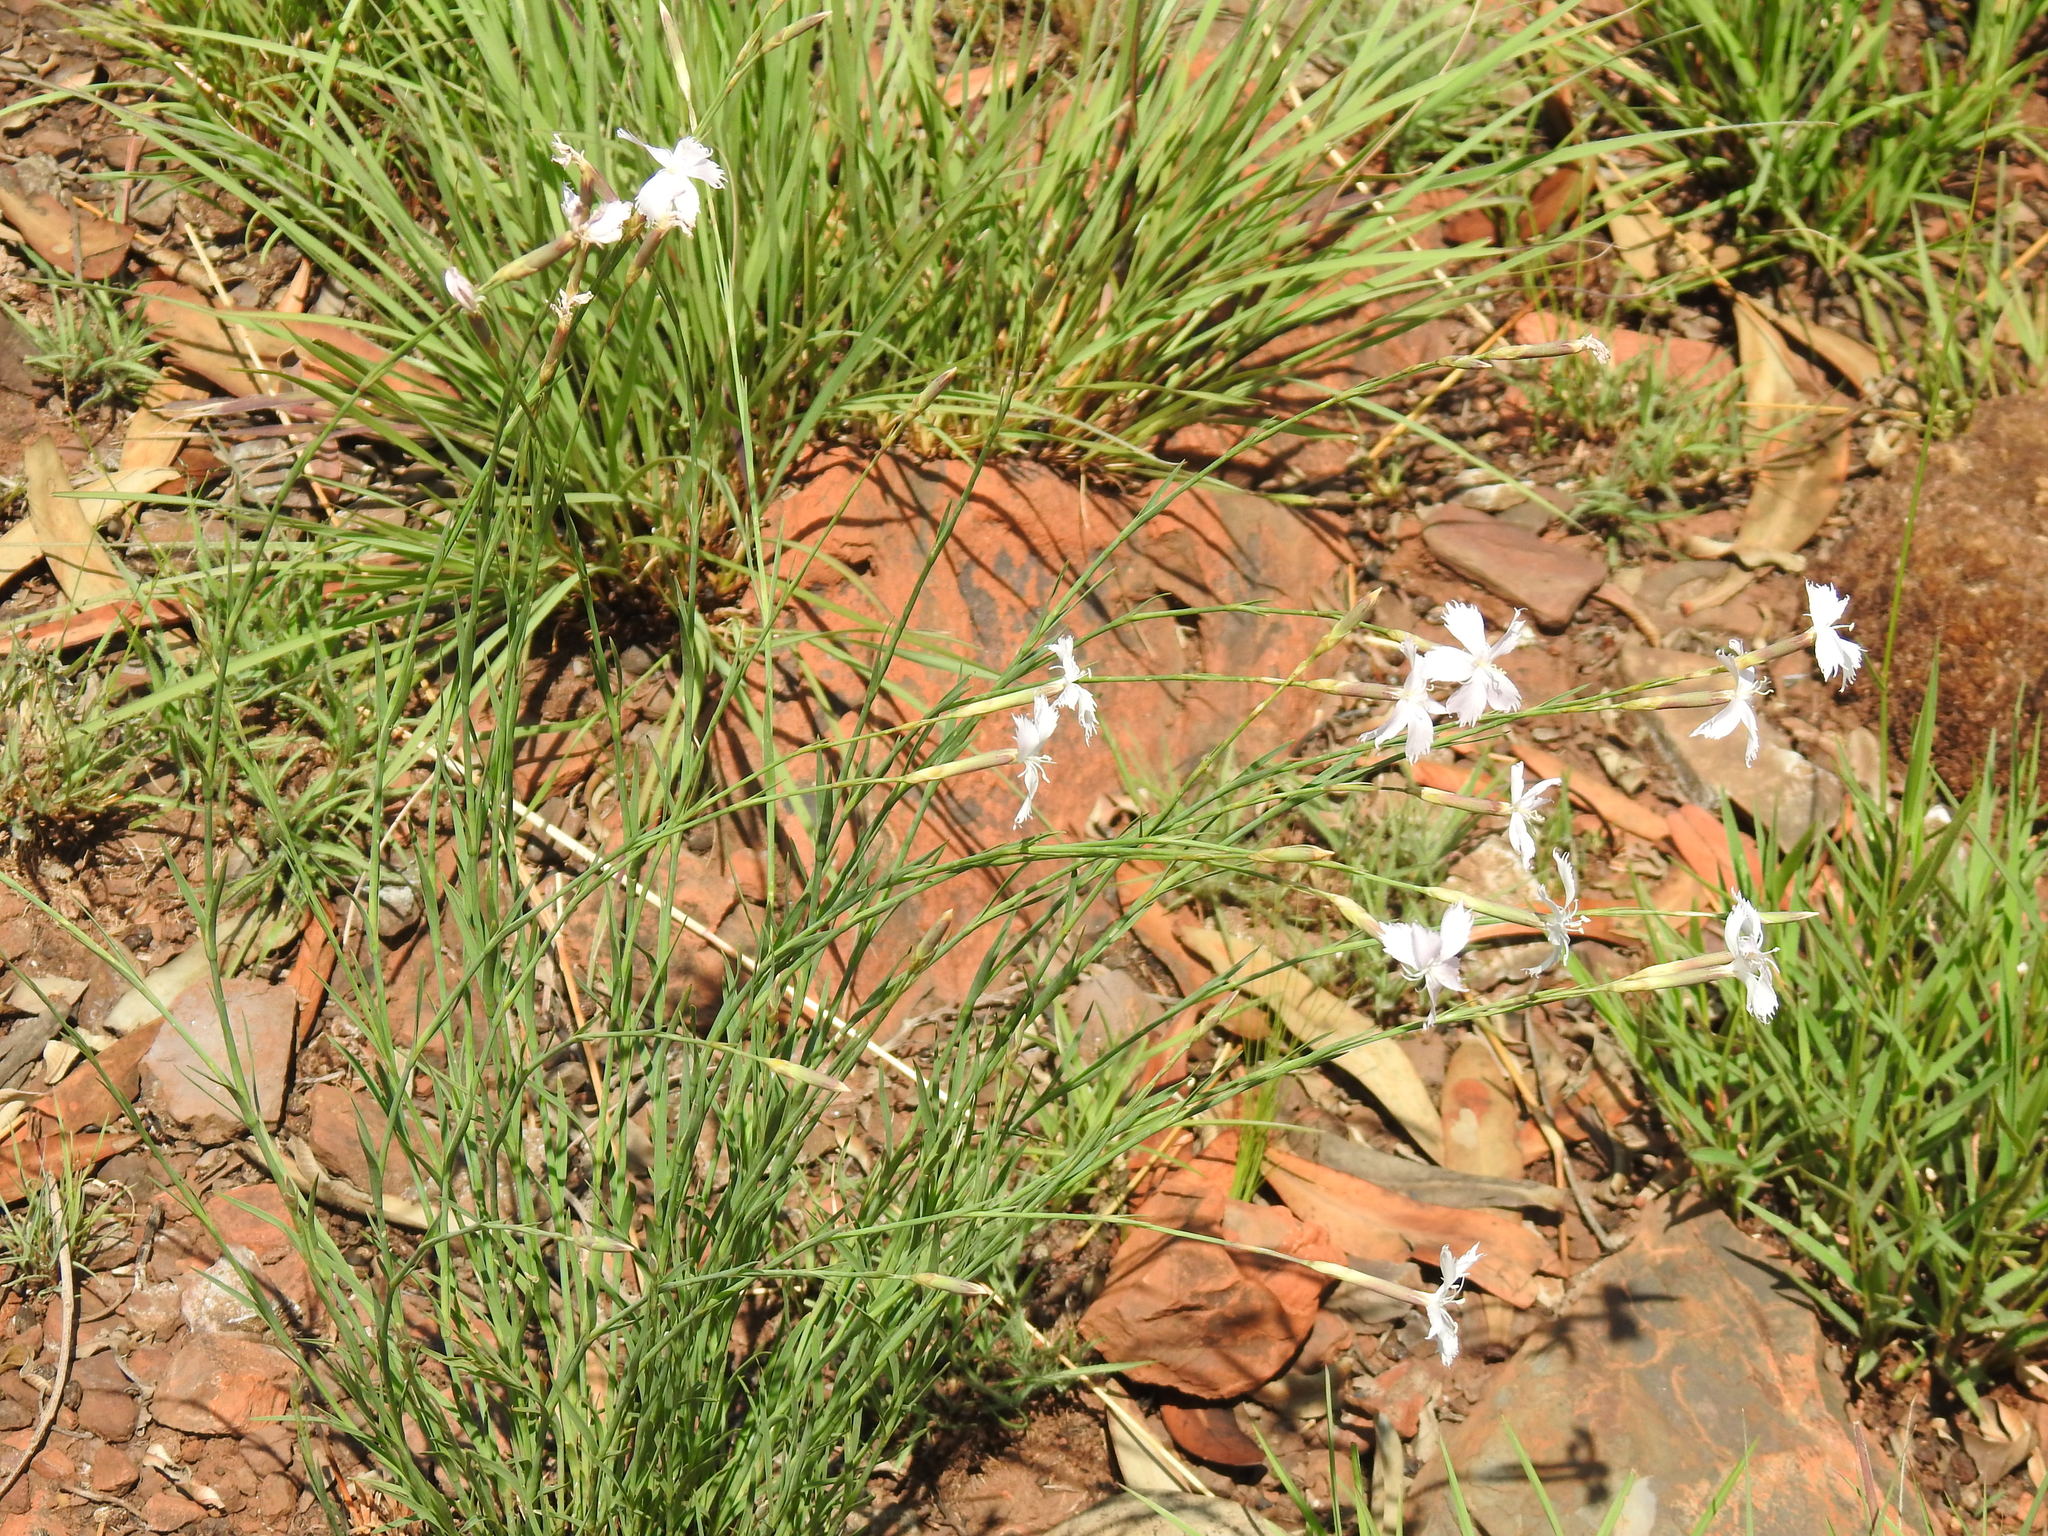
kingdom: Plantae
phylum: Tracheophyta
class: Magnoliopsida
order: Caryophyllales
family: Caryophyllaceae
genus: Dianthus
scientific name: Dianthus mooiensis
